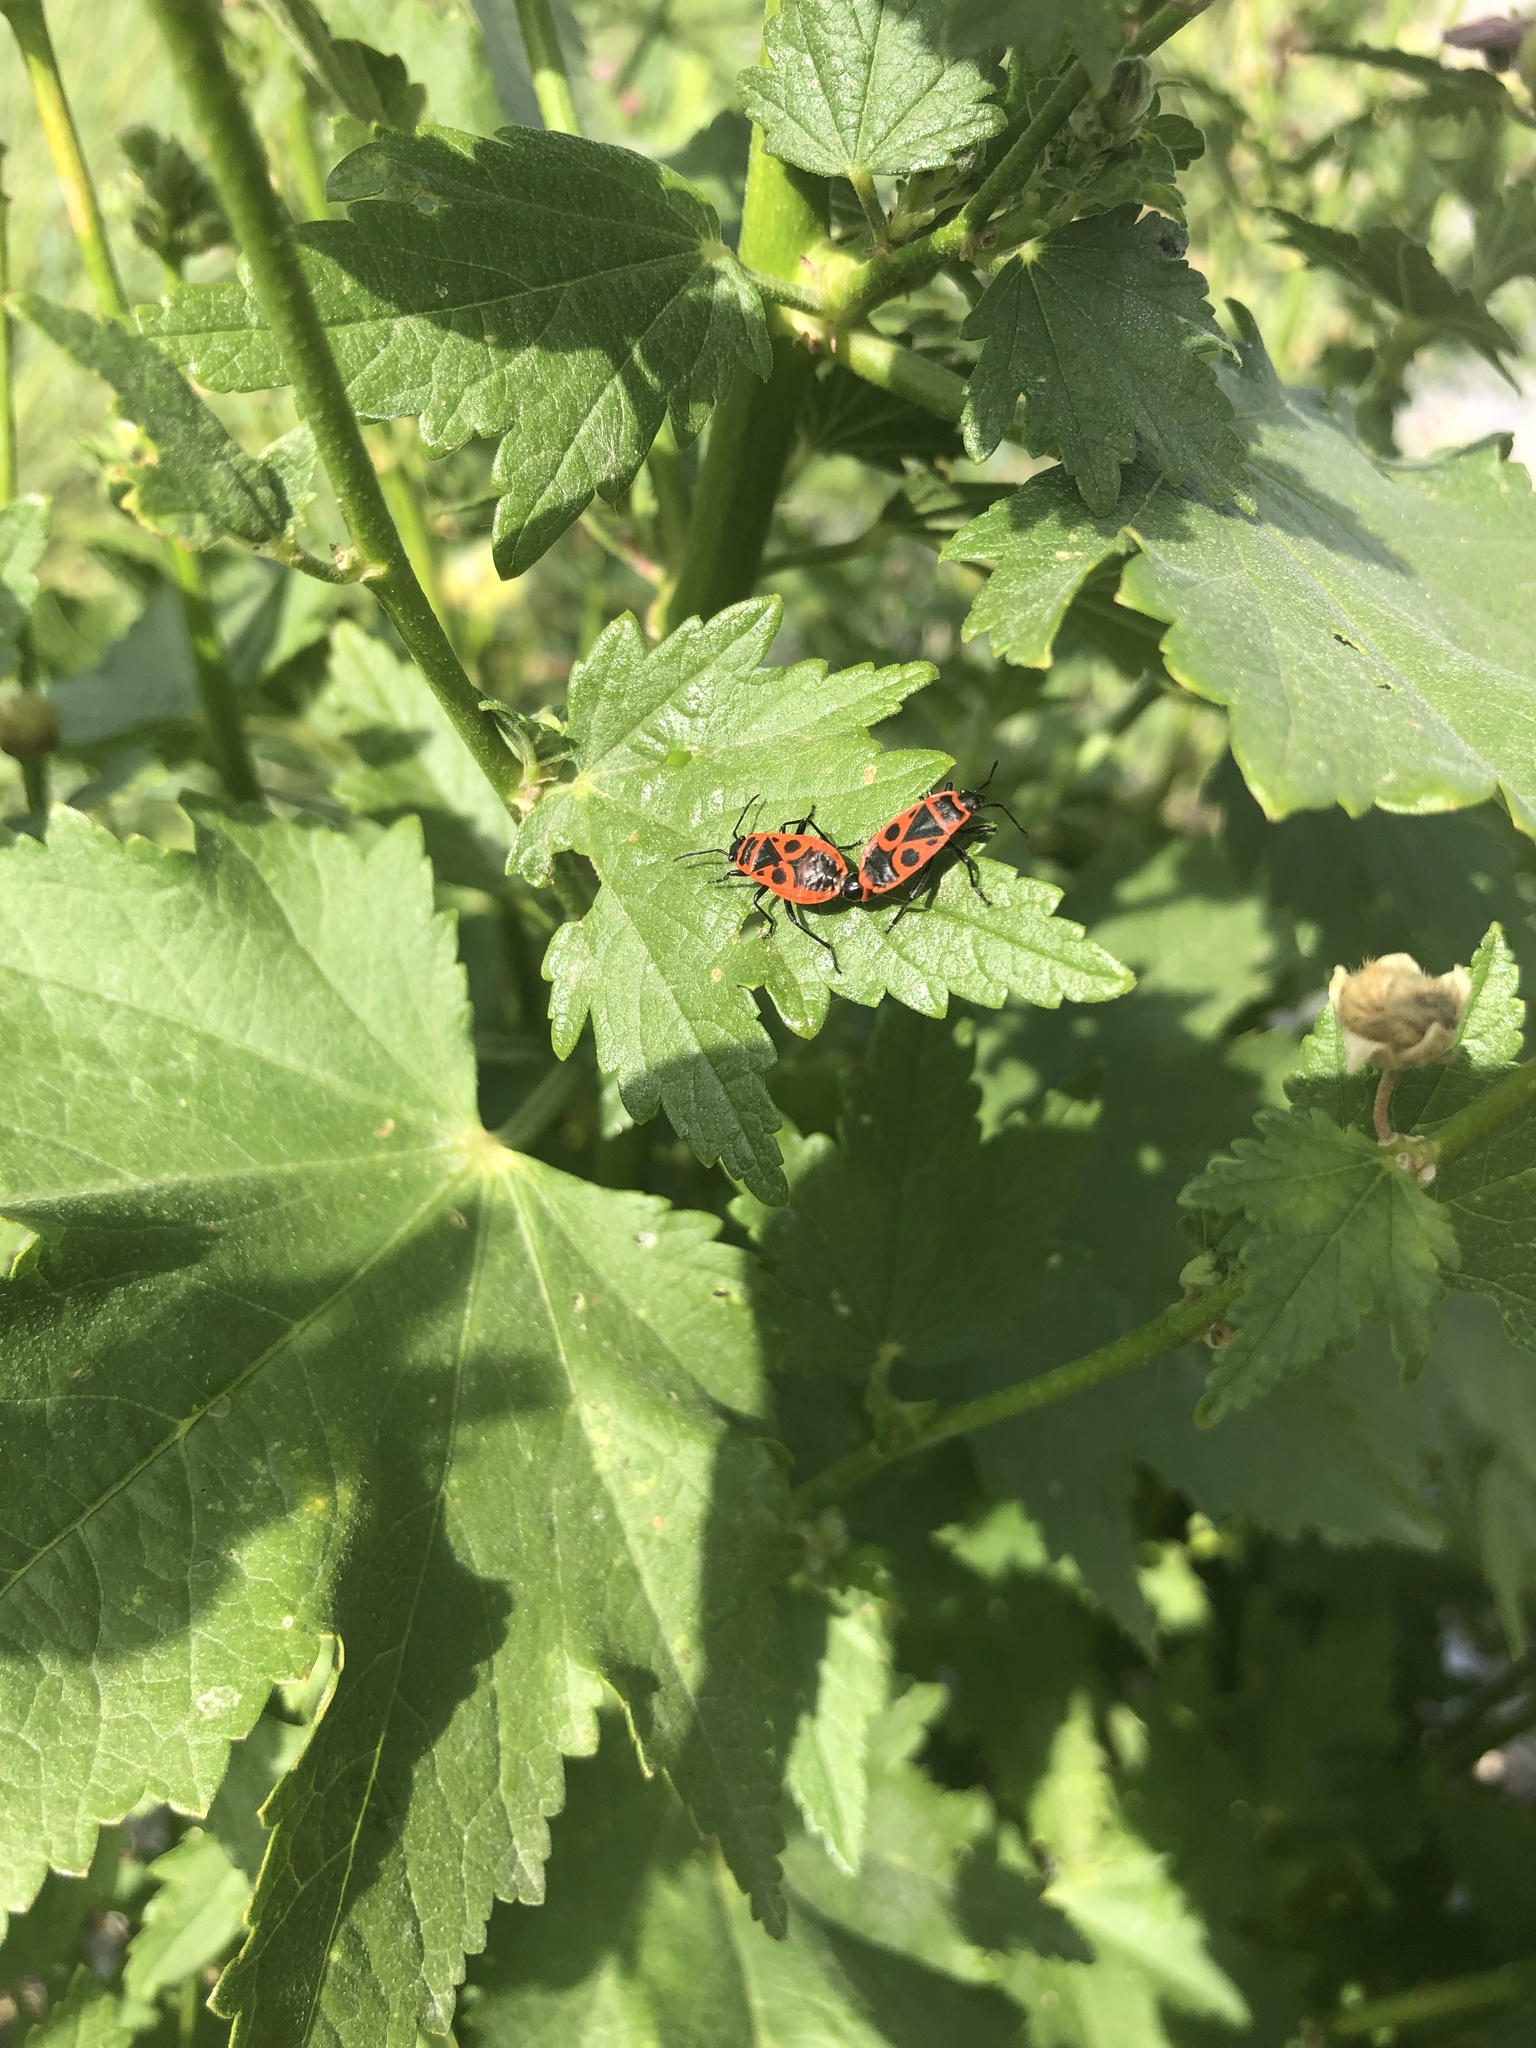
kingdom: Animalia
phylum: Arthropoda
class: Insecta
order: Hemiptera
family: Pyrrhocoridae
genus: Pyrrhocoris
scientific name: Pyrrhocoris apterus
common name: Firebug
